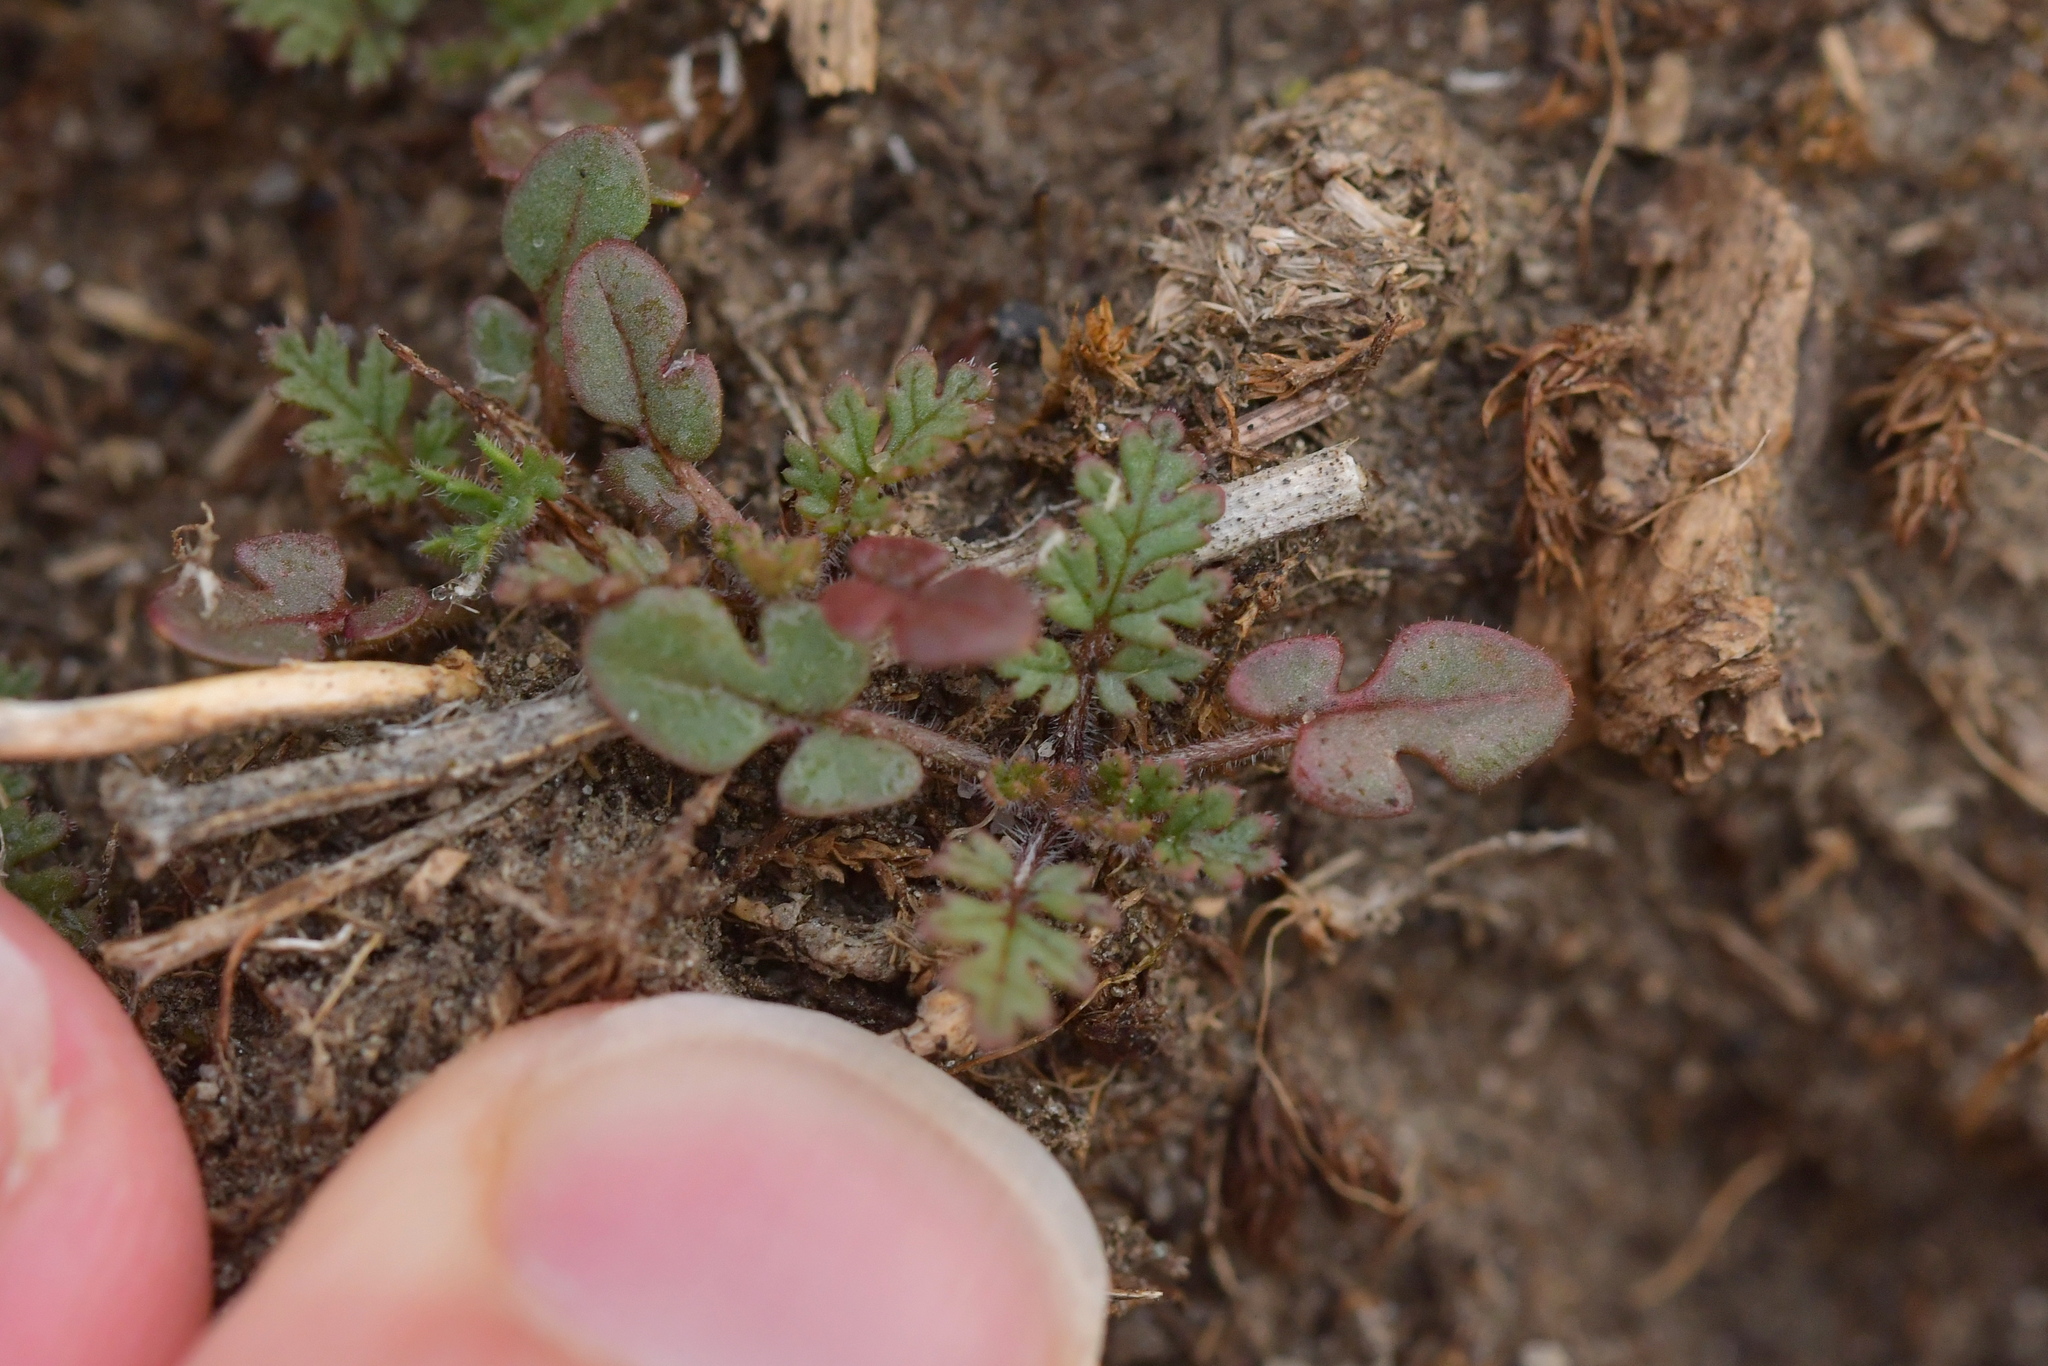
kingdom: Plantae
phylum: Tracheophyta
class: Magnoliopsida
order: Geraniales
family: Geraniaceae
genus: Erodium
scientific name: Erodium cicutarium
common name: Common stork's-bill
